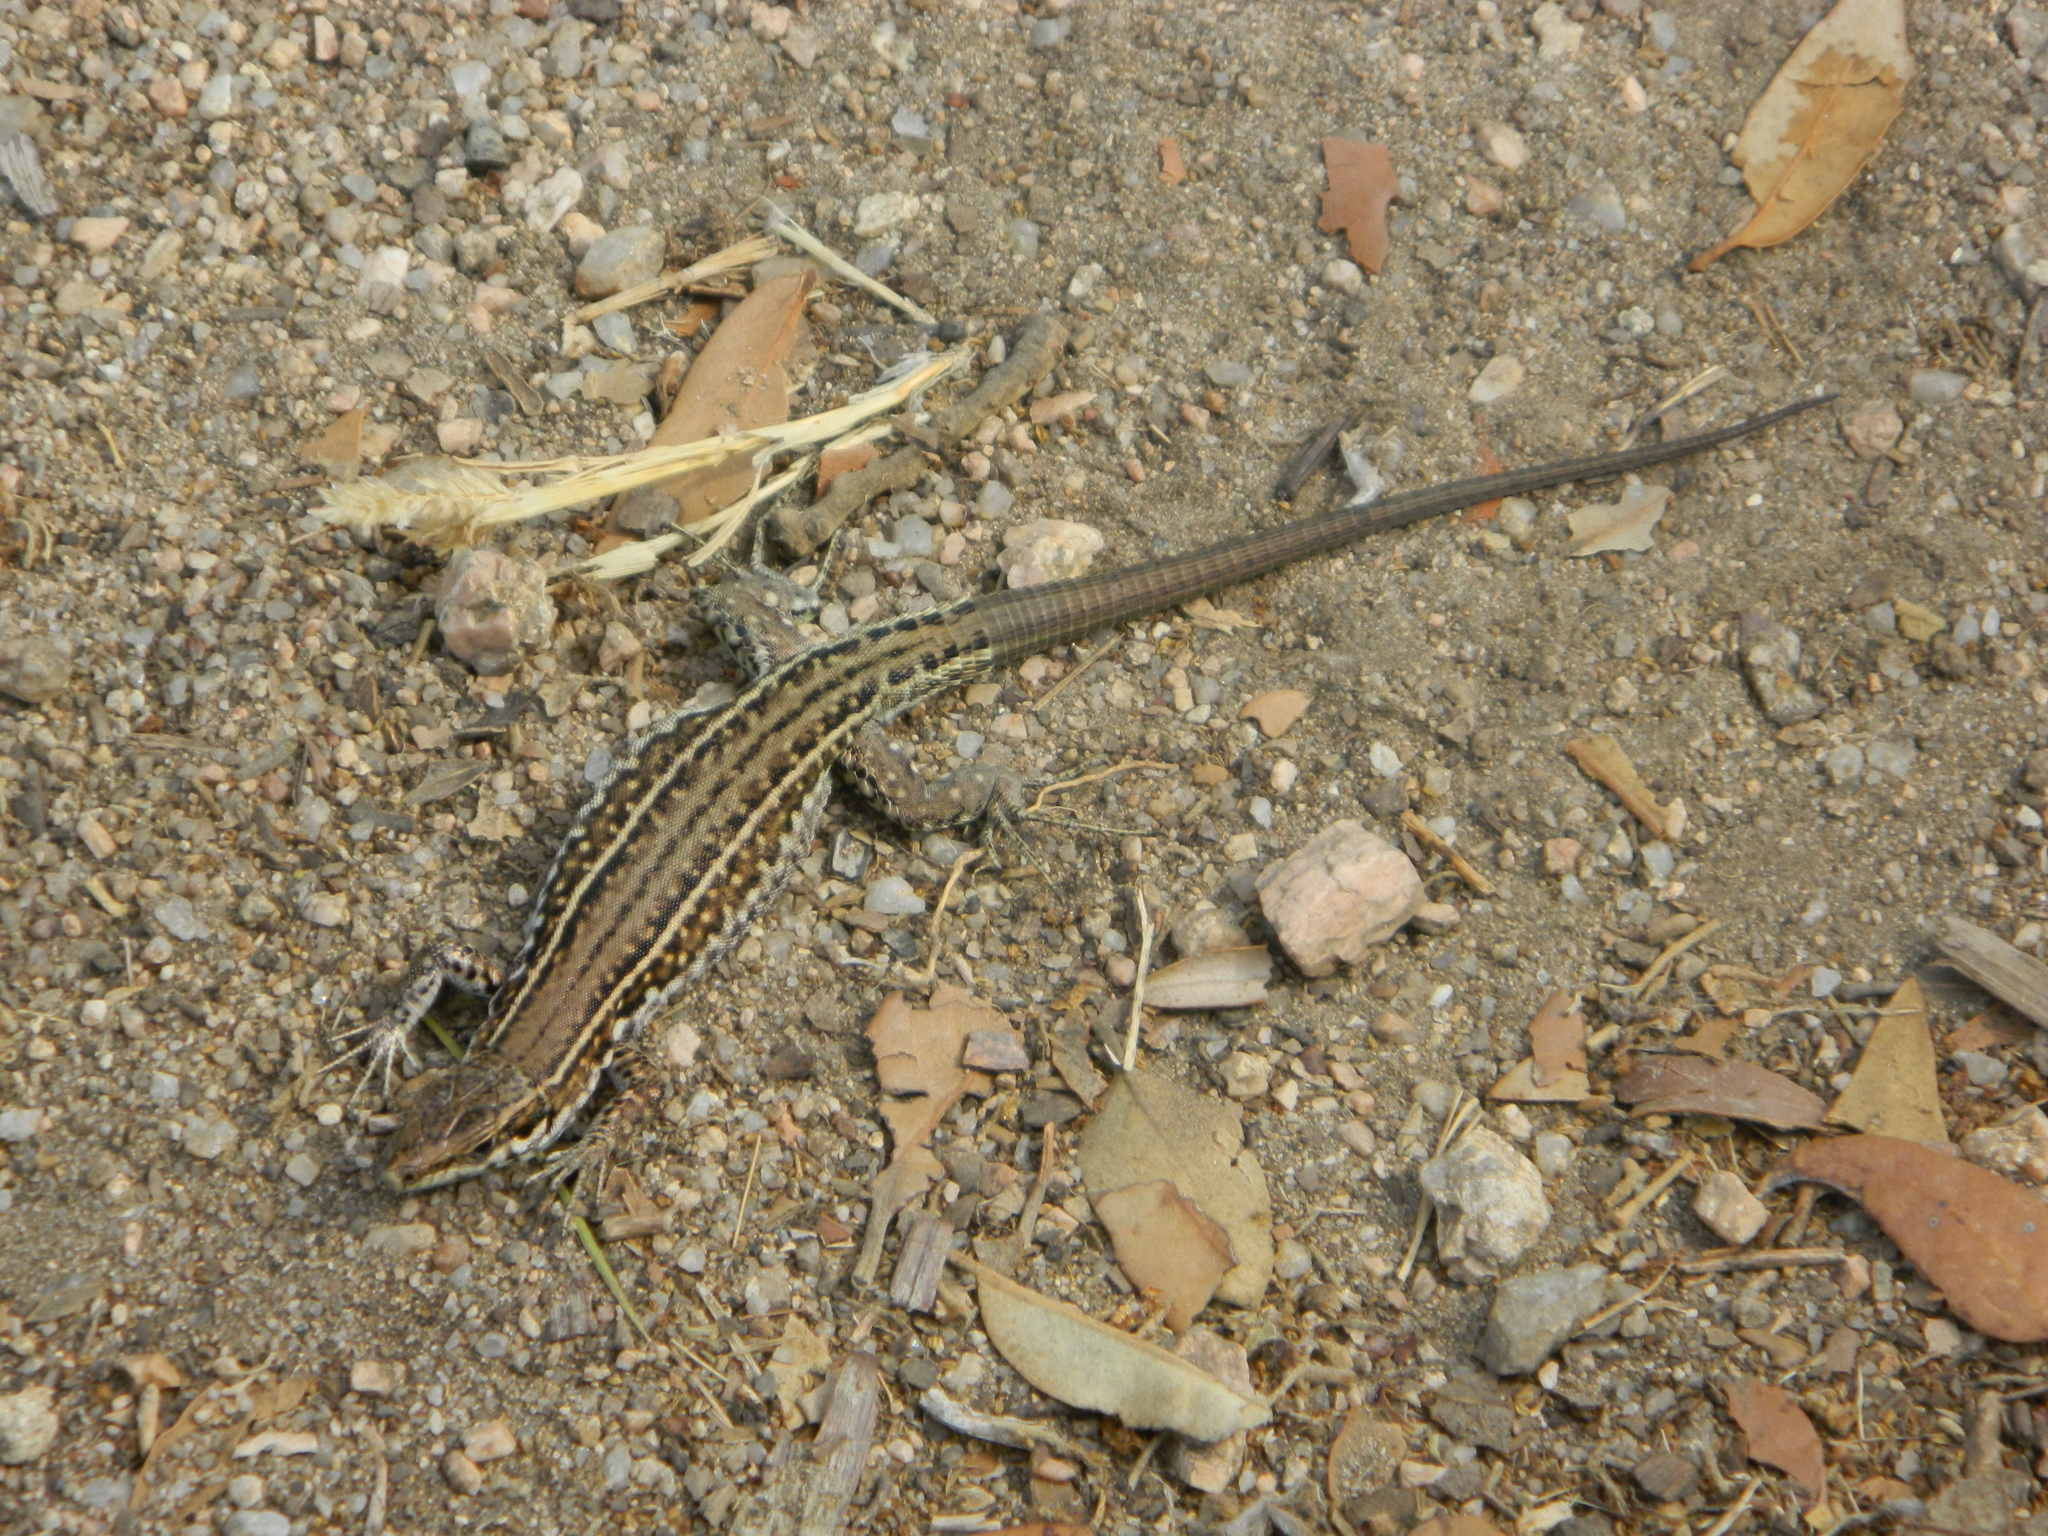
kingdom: Animalia
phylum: Chordata
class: Squamata
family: Lacertidae
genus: Podarcis
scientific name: Podarcis tiliguerta
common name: Tyrrhenian wall lizard
